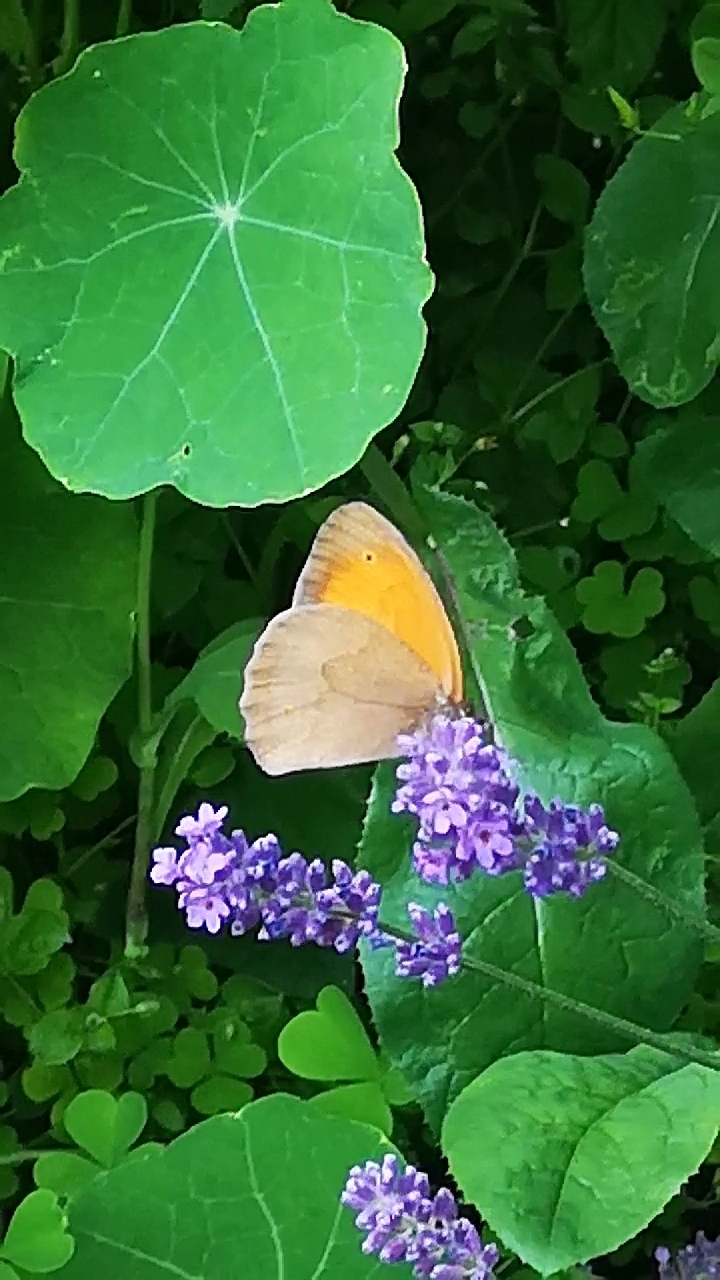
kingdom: Animalia
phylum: Arthropoda
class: Insecta
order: Lepidoptera
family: Nymphalidae
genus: Maniola
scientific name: Maniola jurtina
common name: Meadow brown
